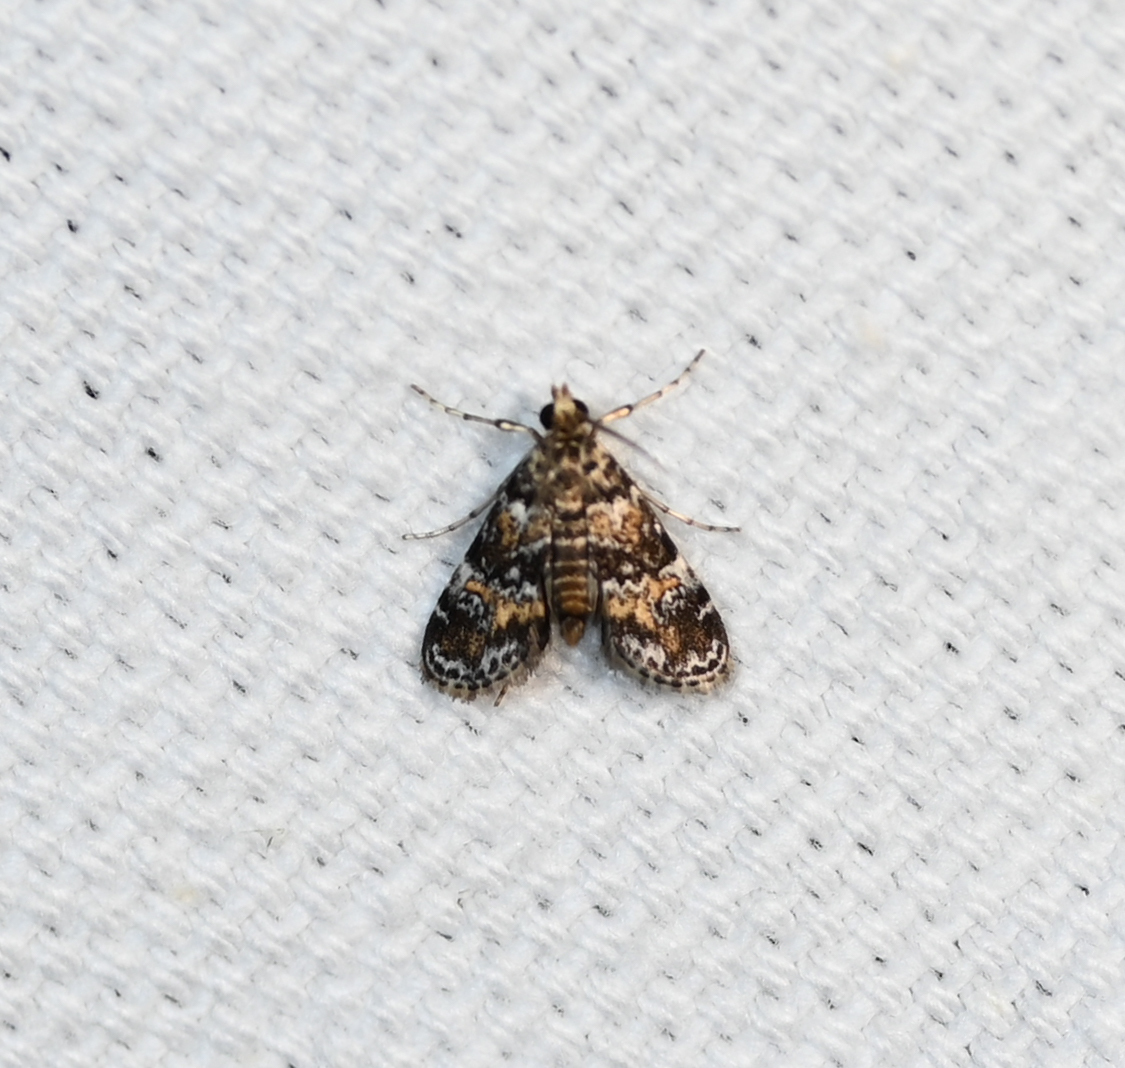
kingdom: Animalia
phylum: Arthropoda
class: Insecta
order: Lepidoptera
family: Crambidae
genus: Elophila
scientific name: Elophila obliteralis
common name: Waterlily leafcutter moth
